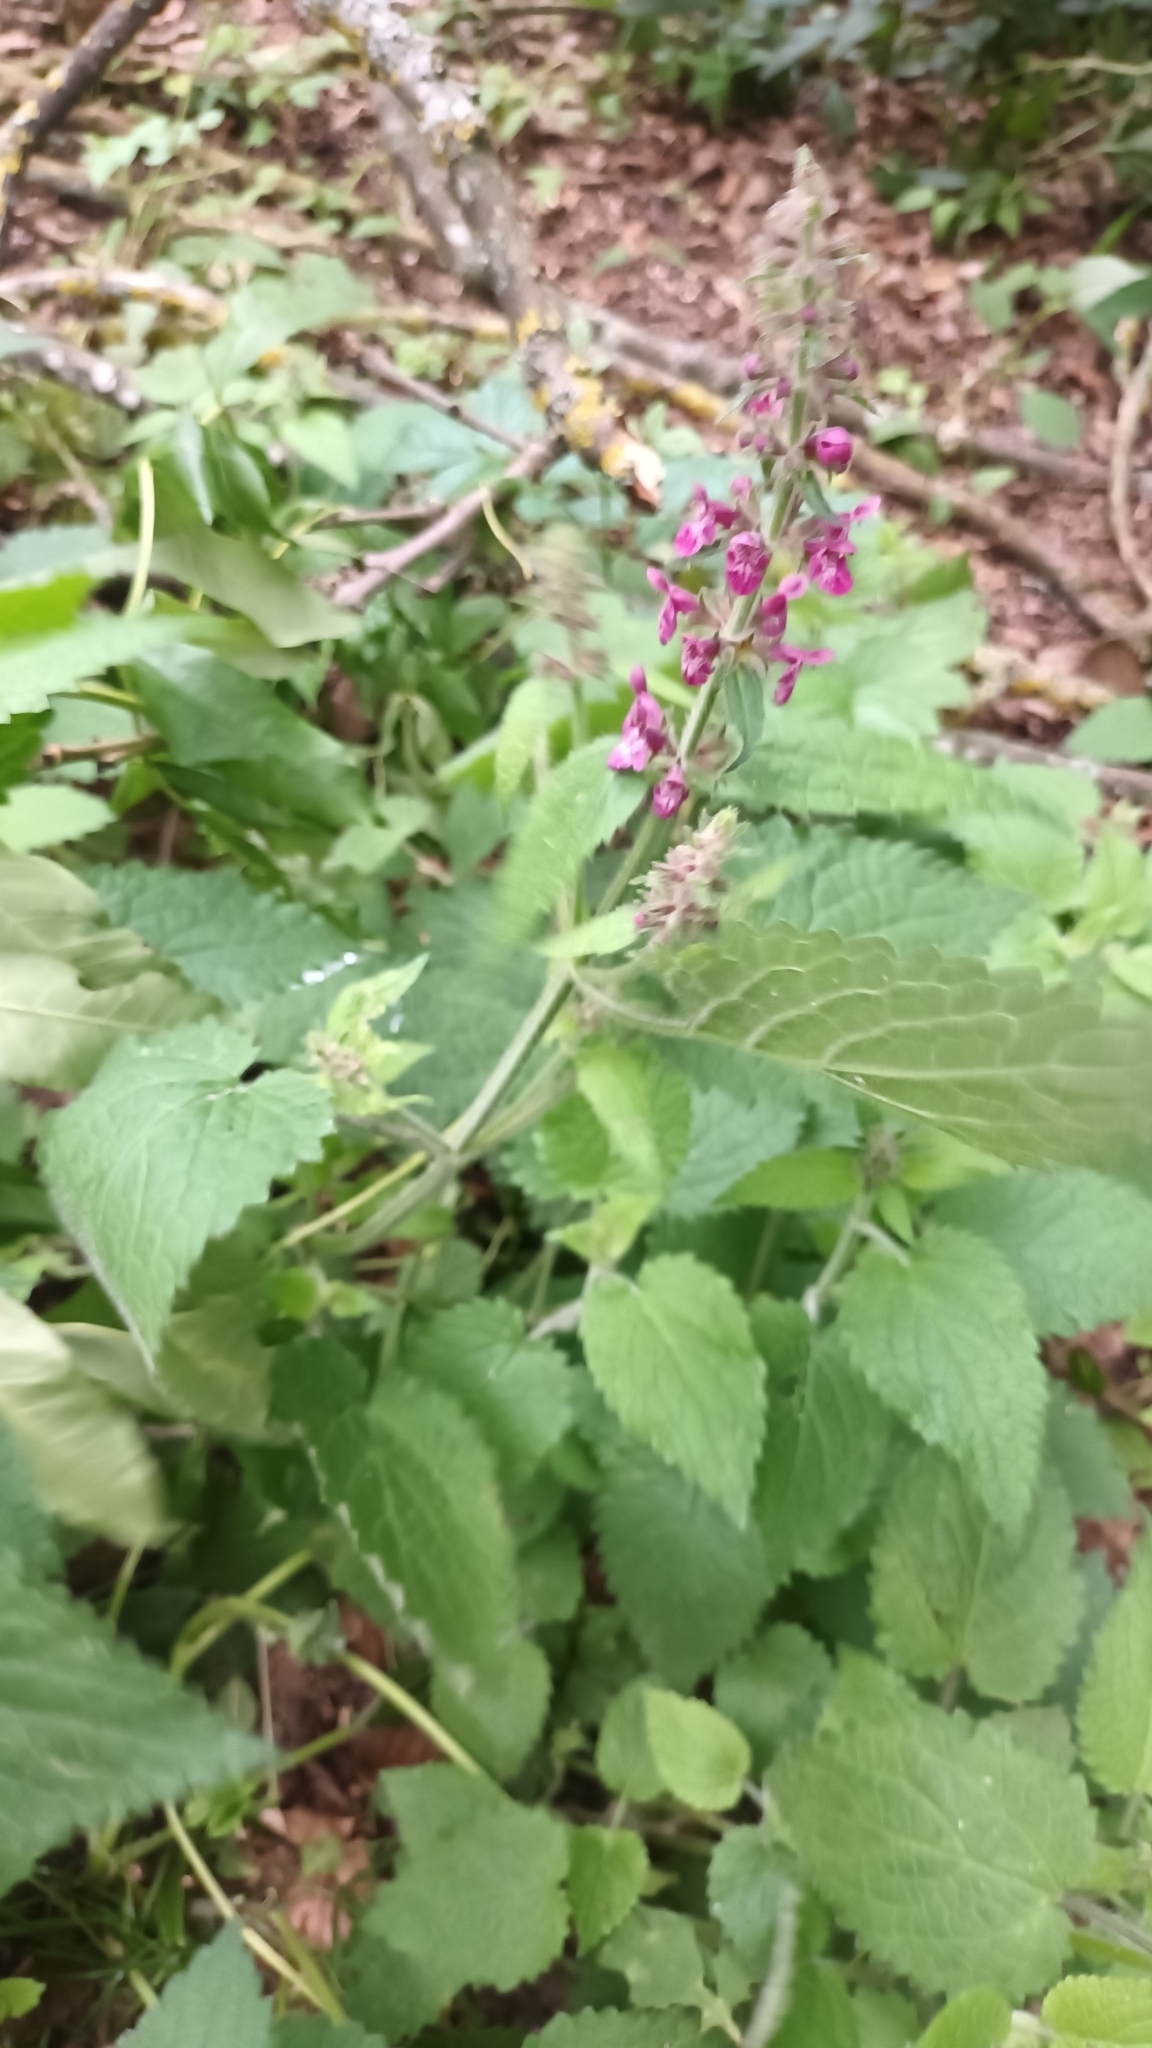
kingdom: Plantae
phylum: Tracheophyta
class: Magnoliopsida
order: Lamiales
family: Lamiaceae
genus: Stachys
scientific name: Stachys sylvatica
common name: Hedge woundwort
